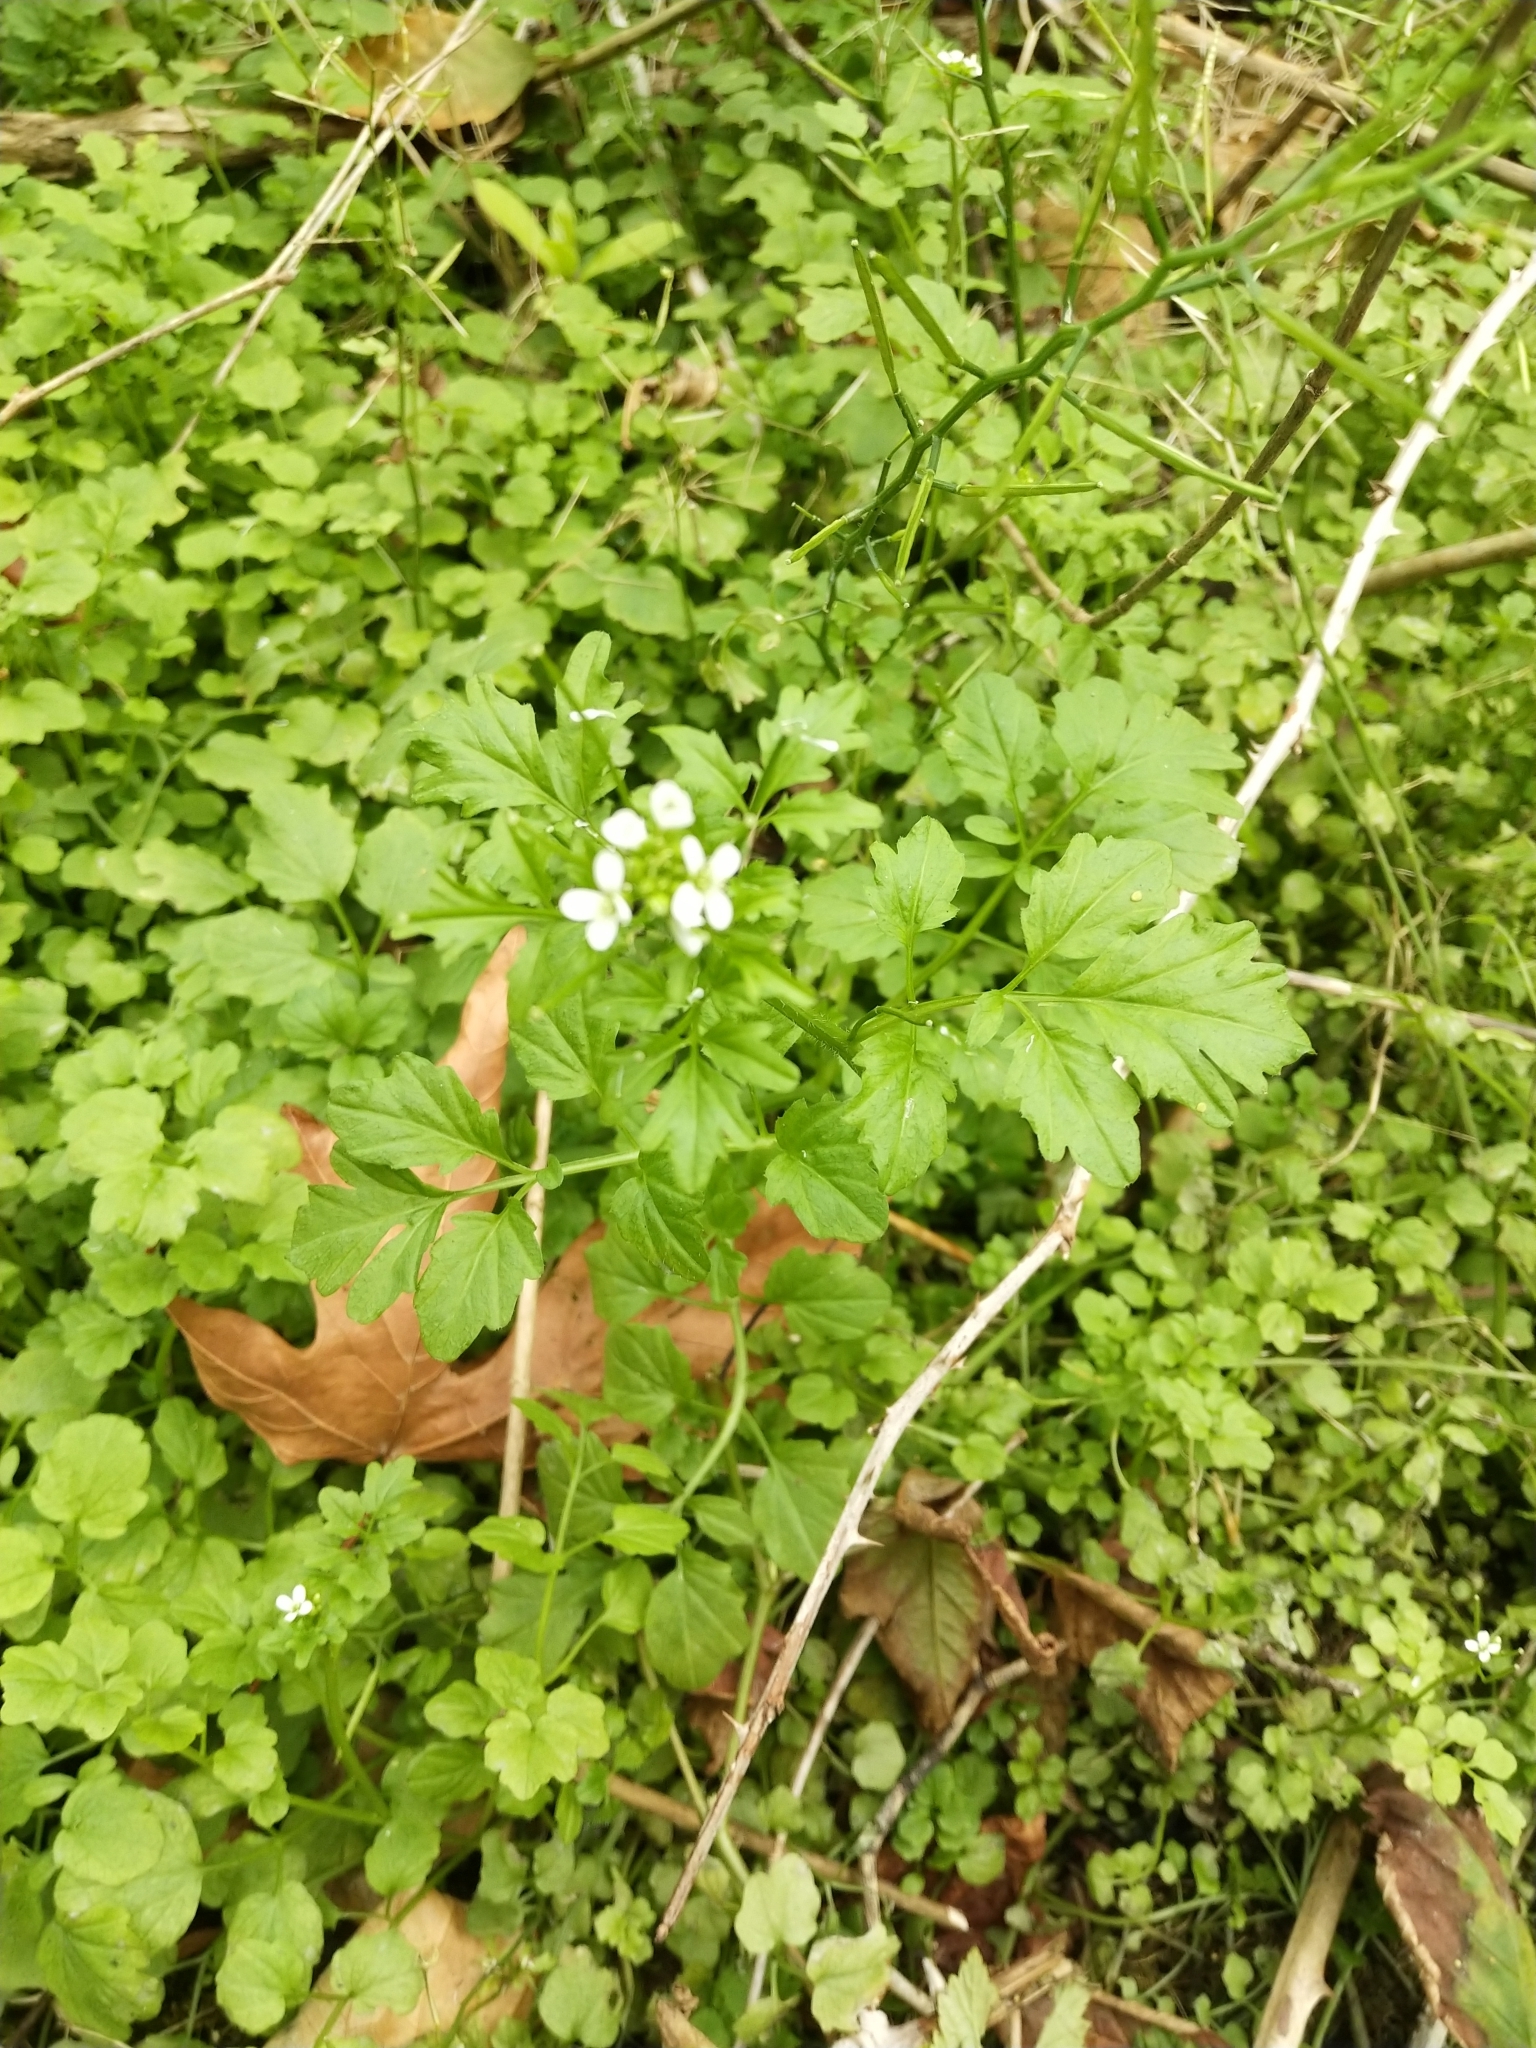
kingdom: Plantae
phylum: Tracheophyta
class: Magnoliopsida
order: Brassicales
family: Brassicaceae
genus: Cardamine
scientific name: Cardamine flexuosa
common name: Woodland bittercress
